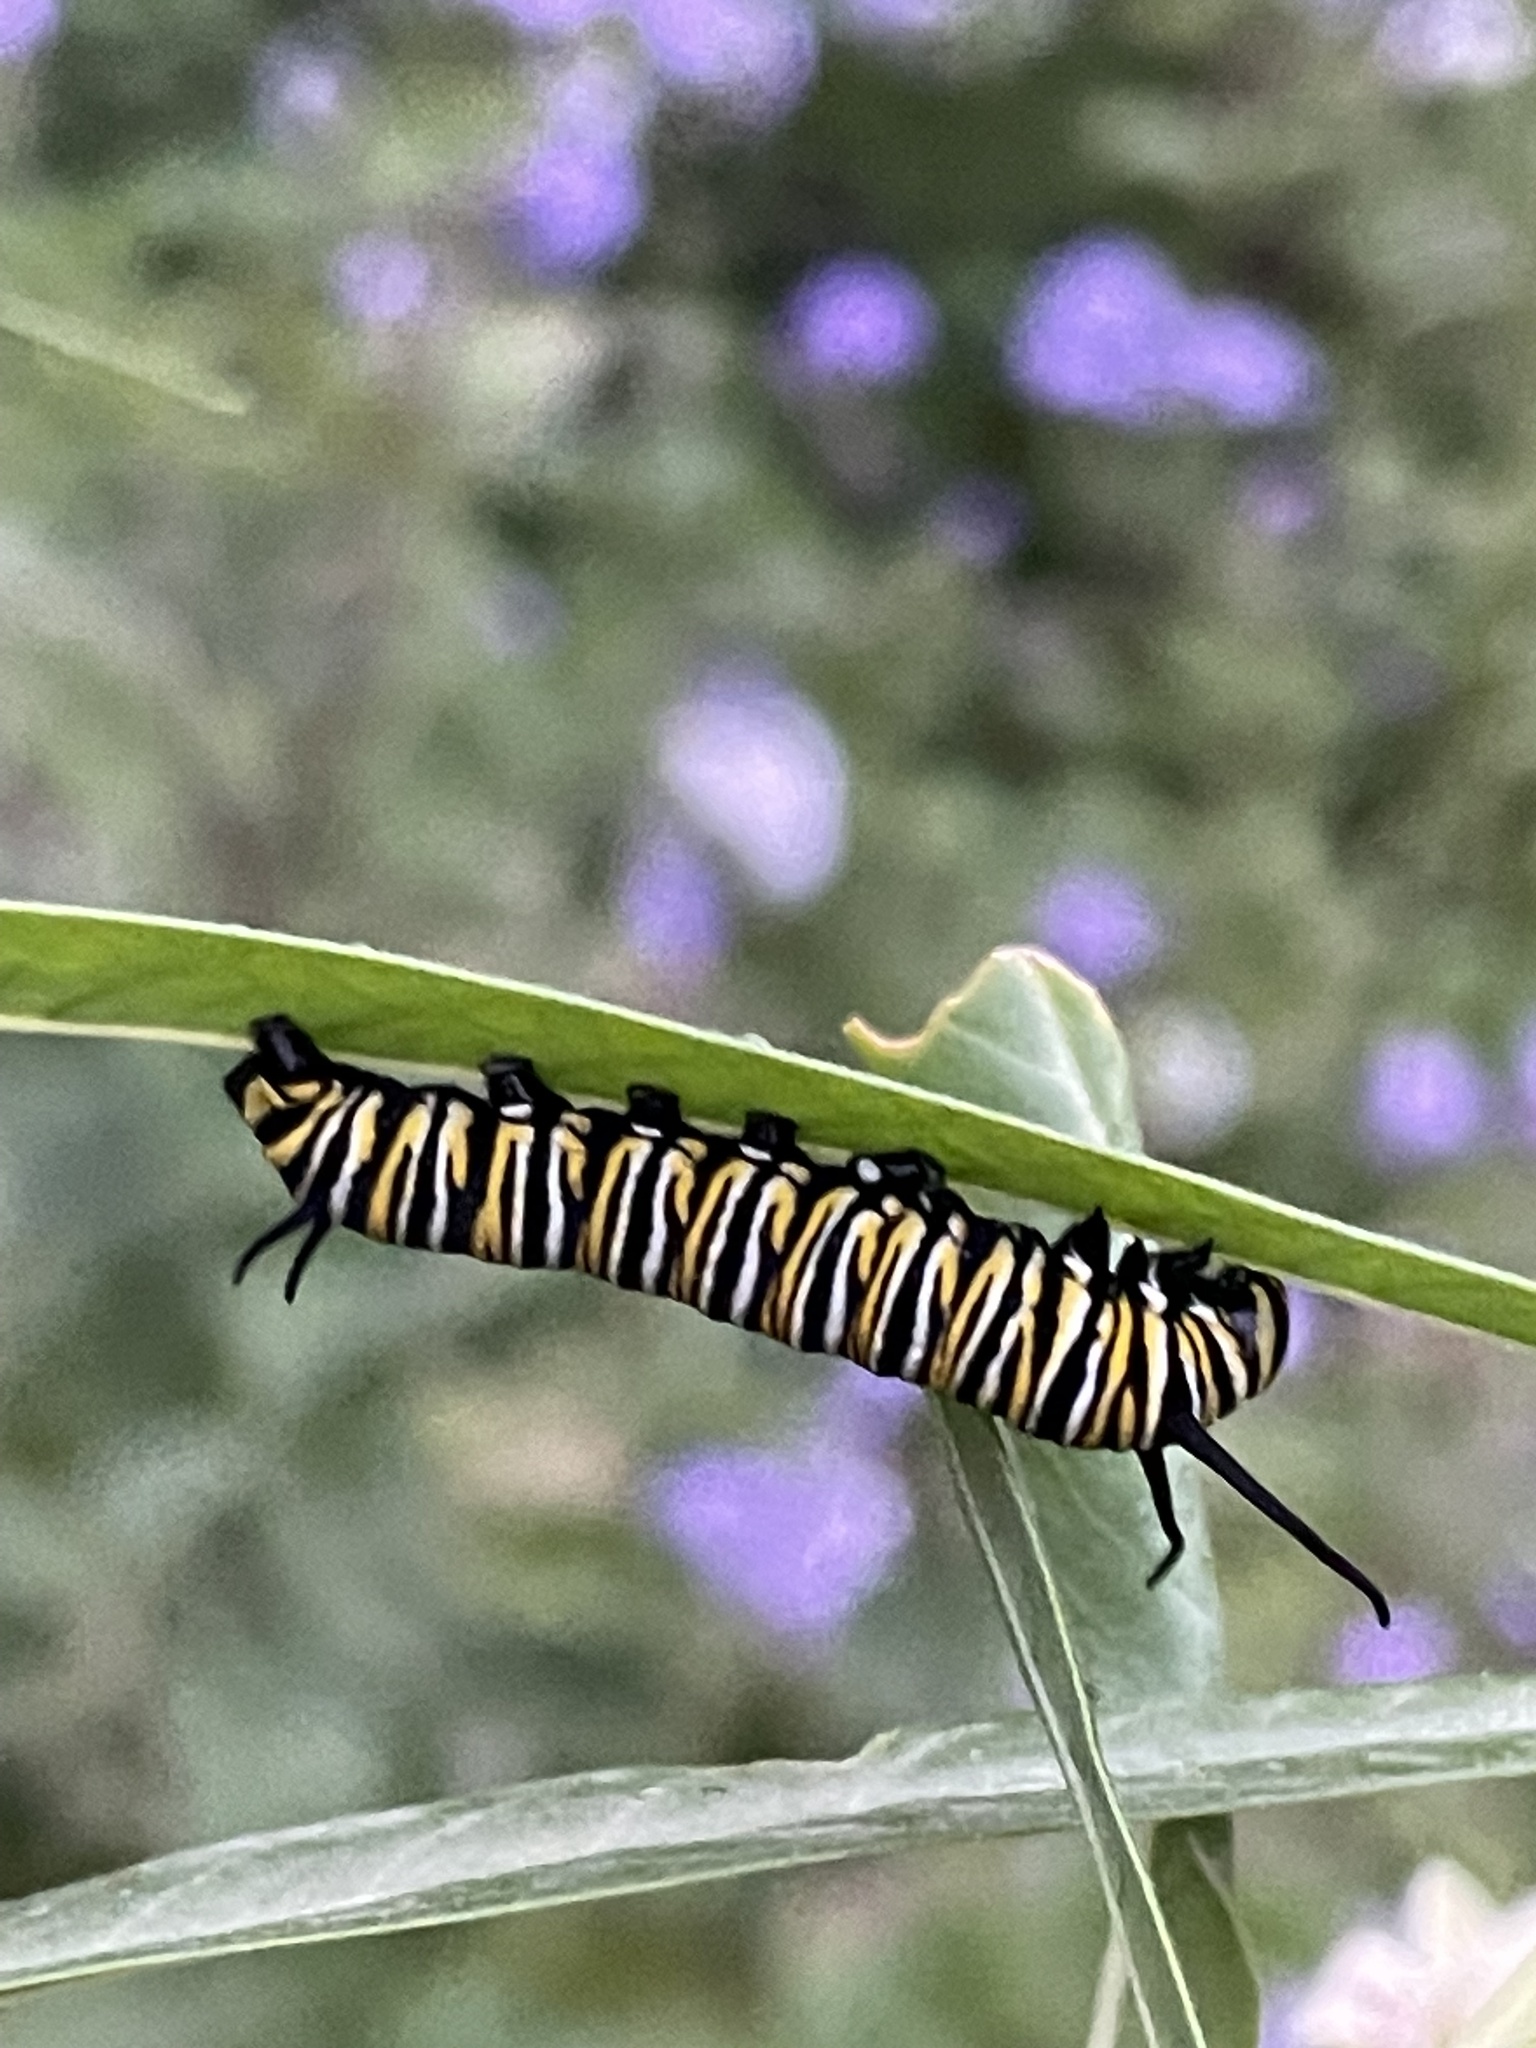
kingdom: Animalia
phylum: Arthropoda
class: Insecta
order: Lepidoptera
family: Nymphalidae
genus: Danaus
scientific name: Danaus plexippus
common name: Monarch
